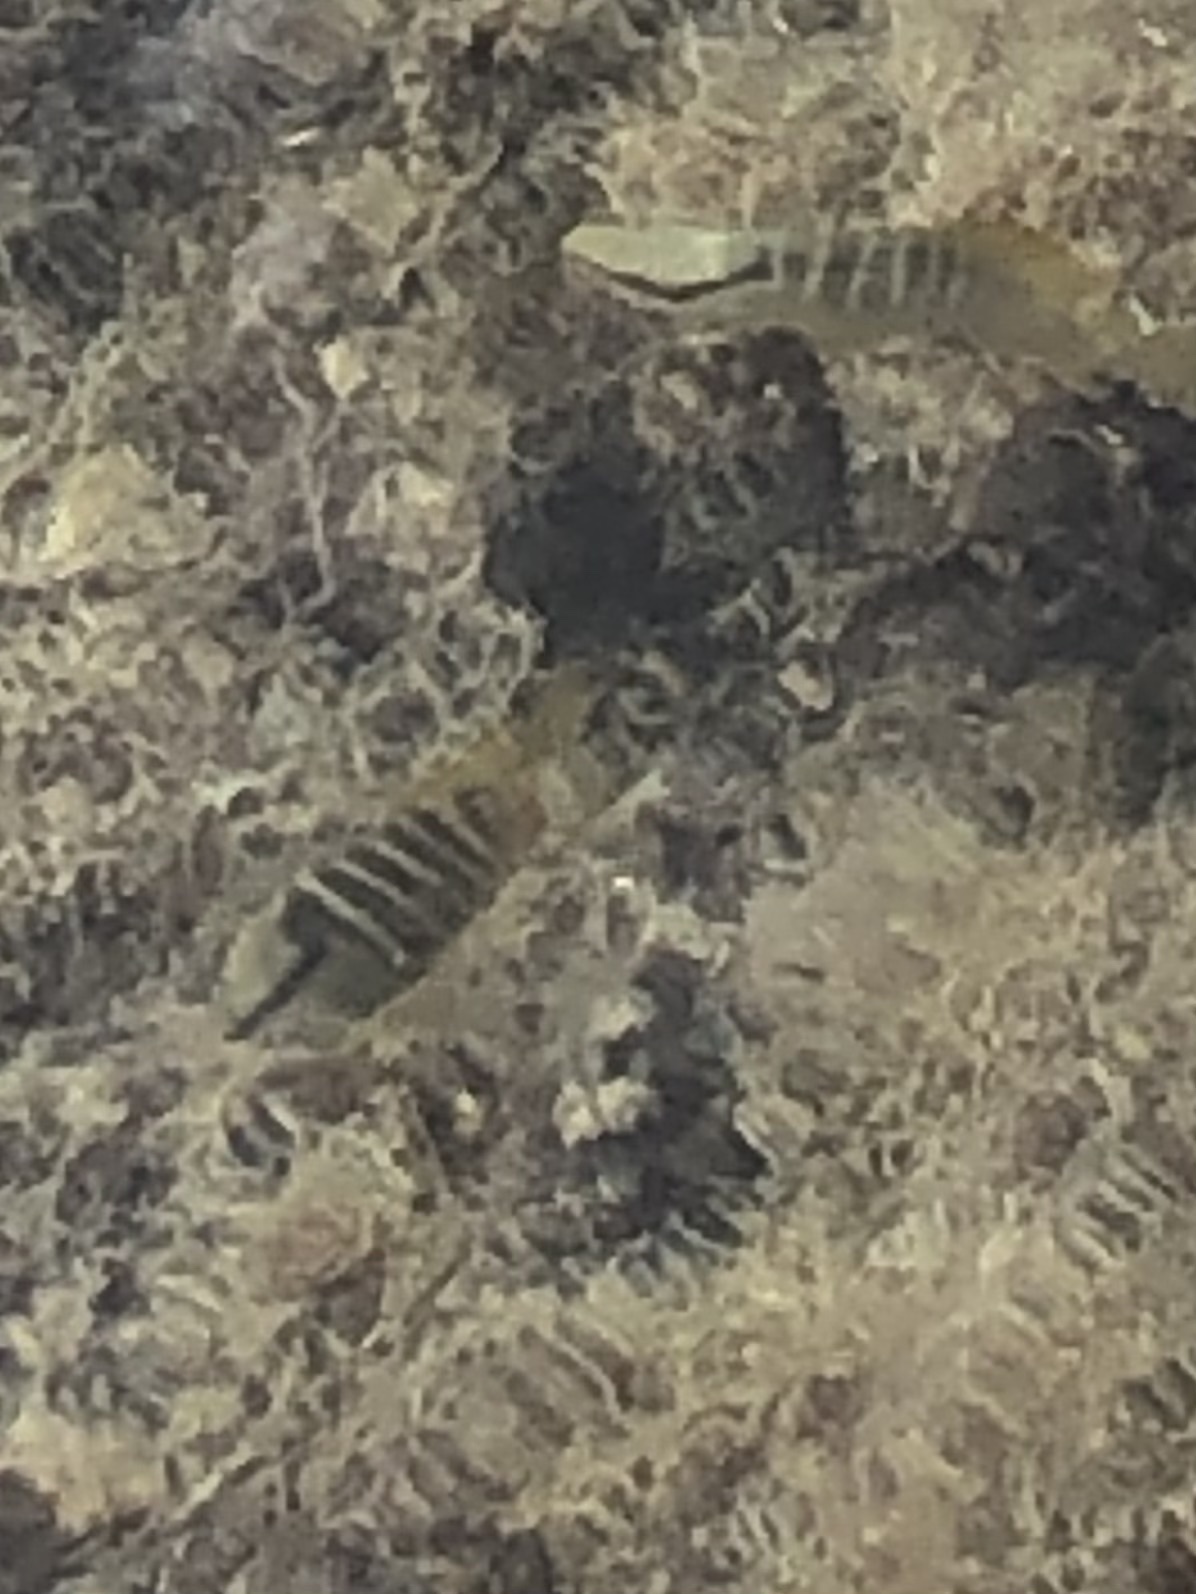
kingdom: Animalia
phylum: Chordata
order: Perciformes
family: Lutjanidae
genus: Lutjanus
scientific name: Lutjanus apodus
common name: Schoolmaster
